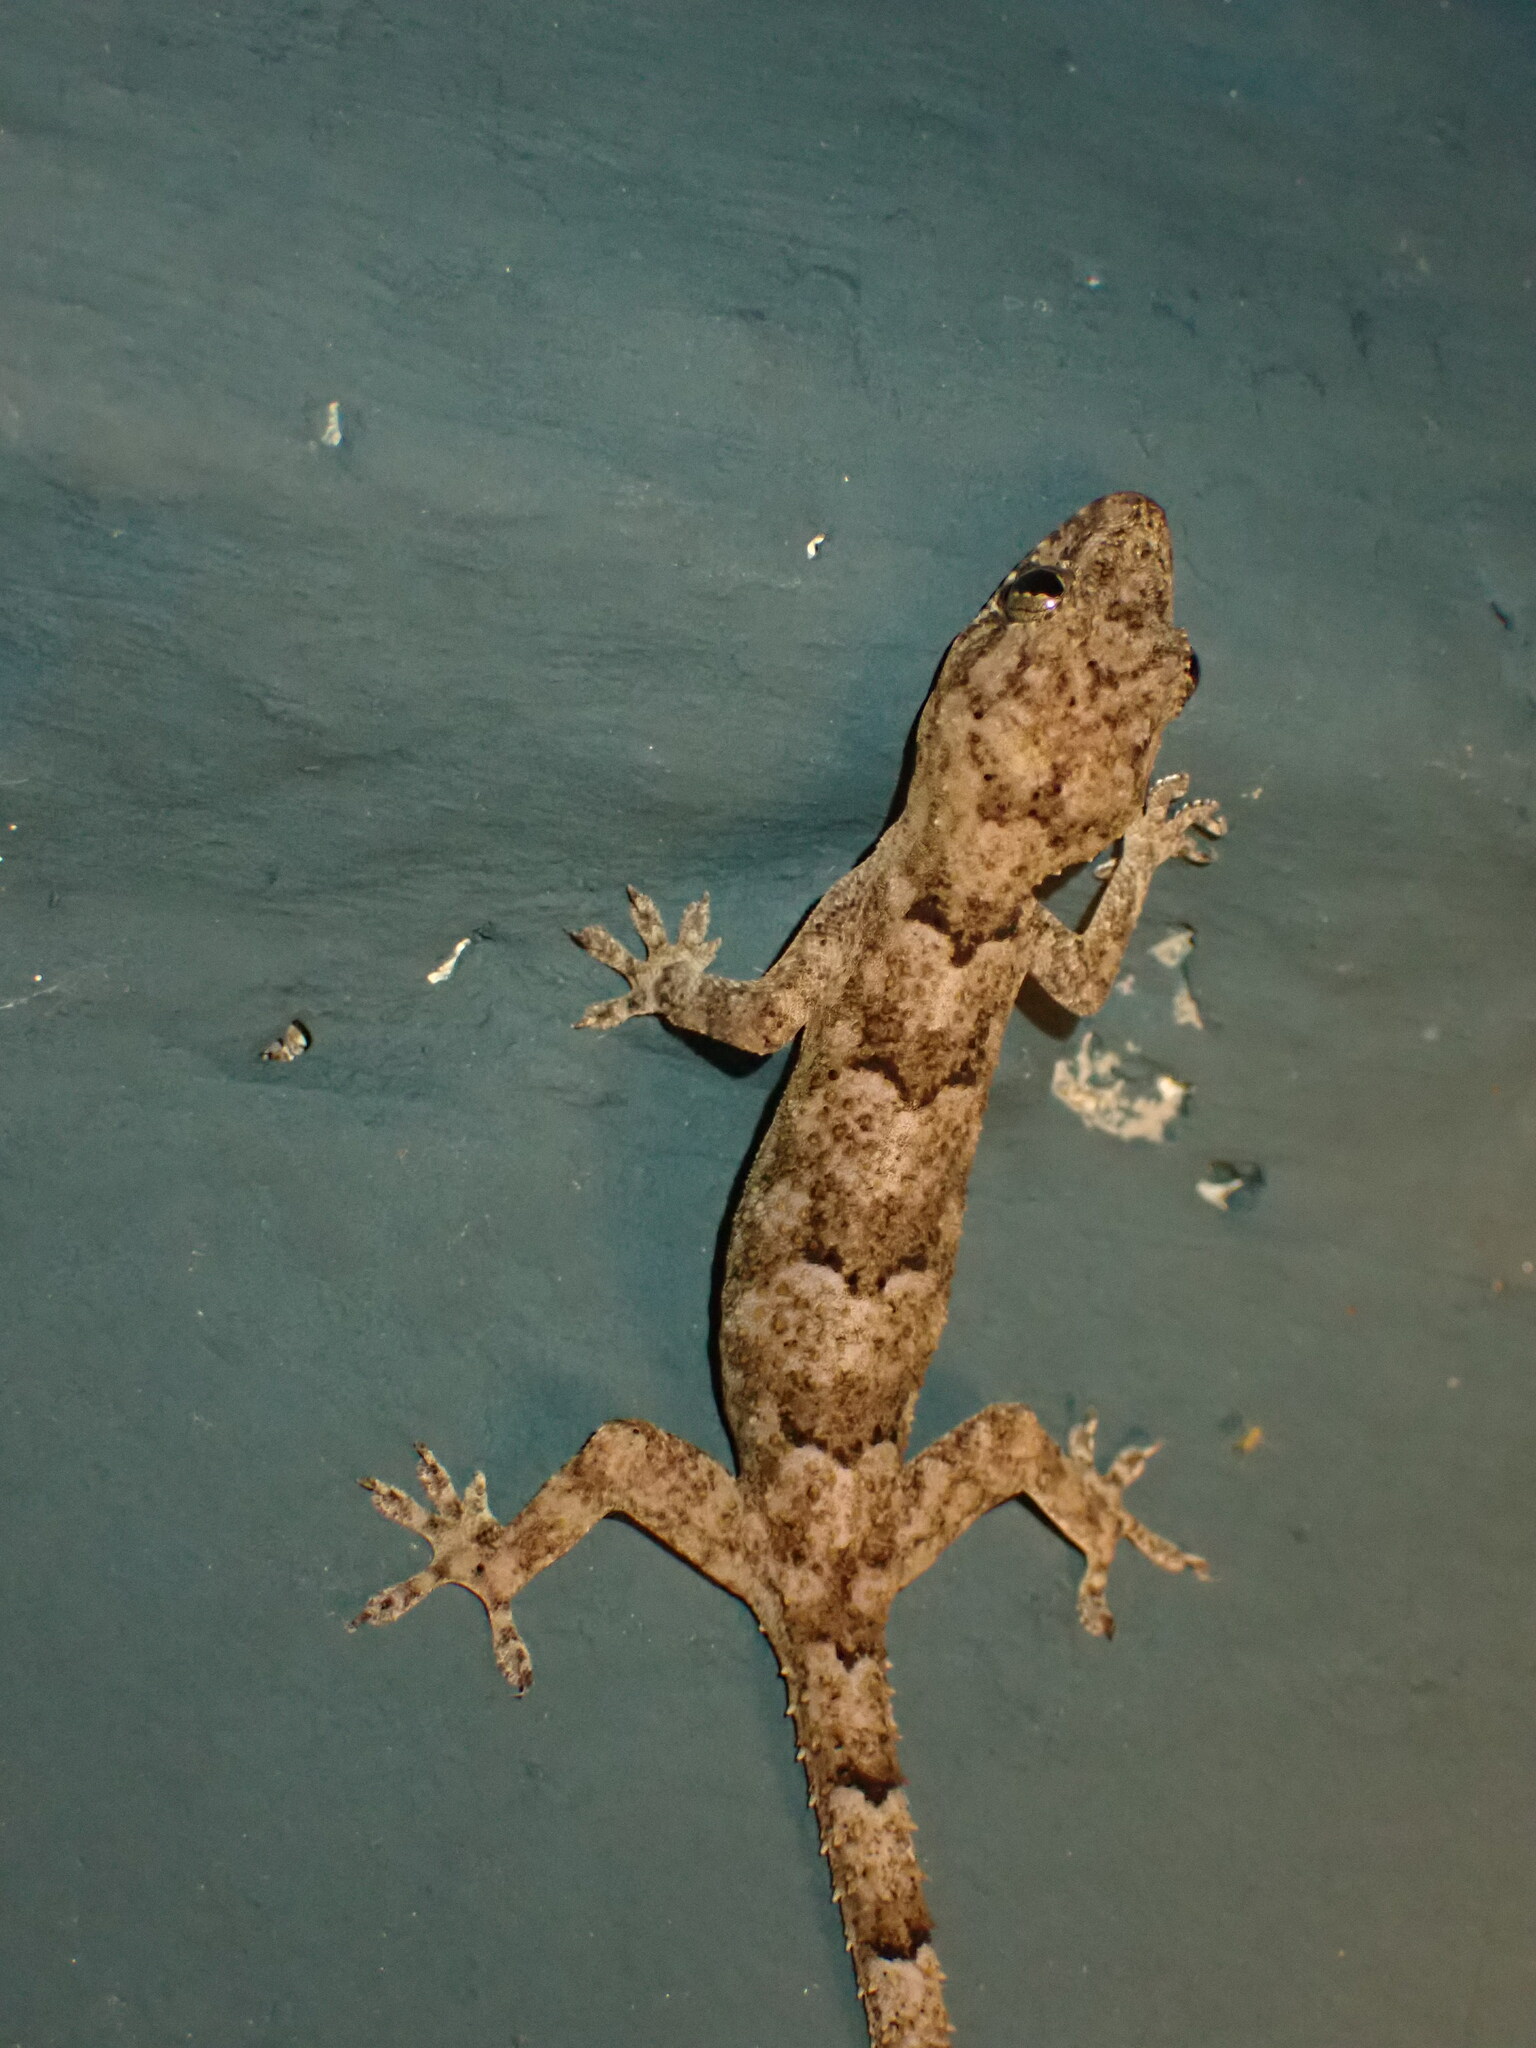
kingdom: Animalia
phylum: Chordata
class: Squamata
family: Gekkonidae
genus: Hemidactylus
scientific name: Hemidactylus mabouia
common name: House gecko
